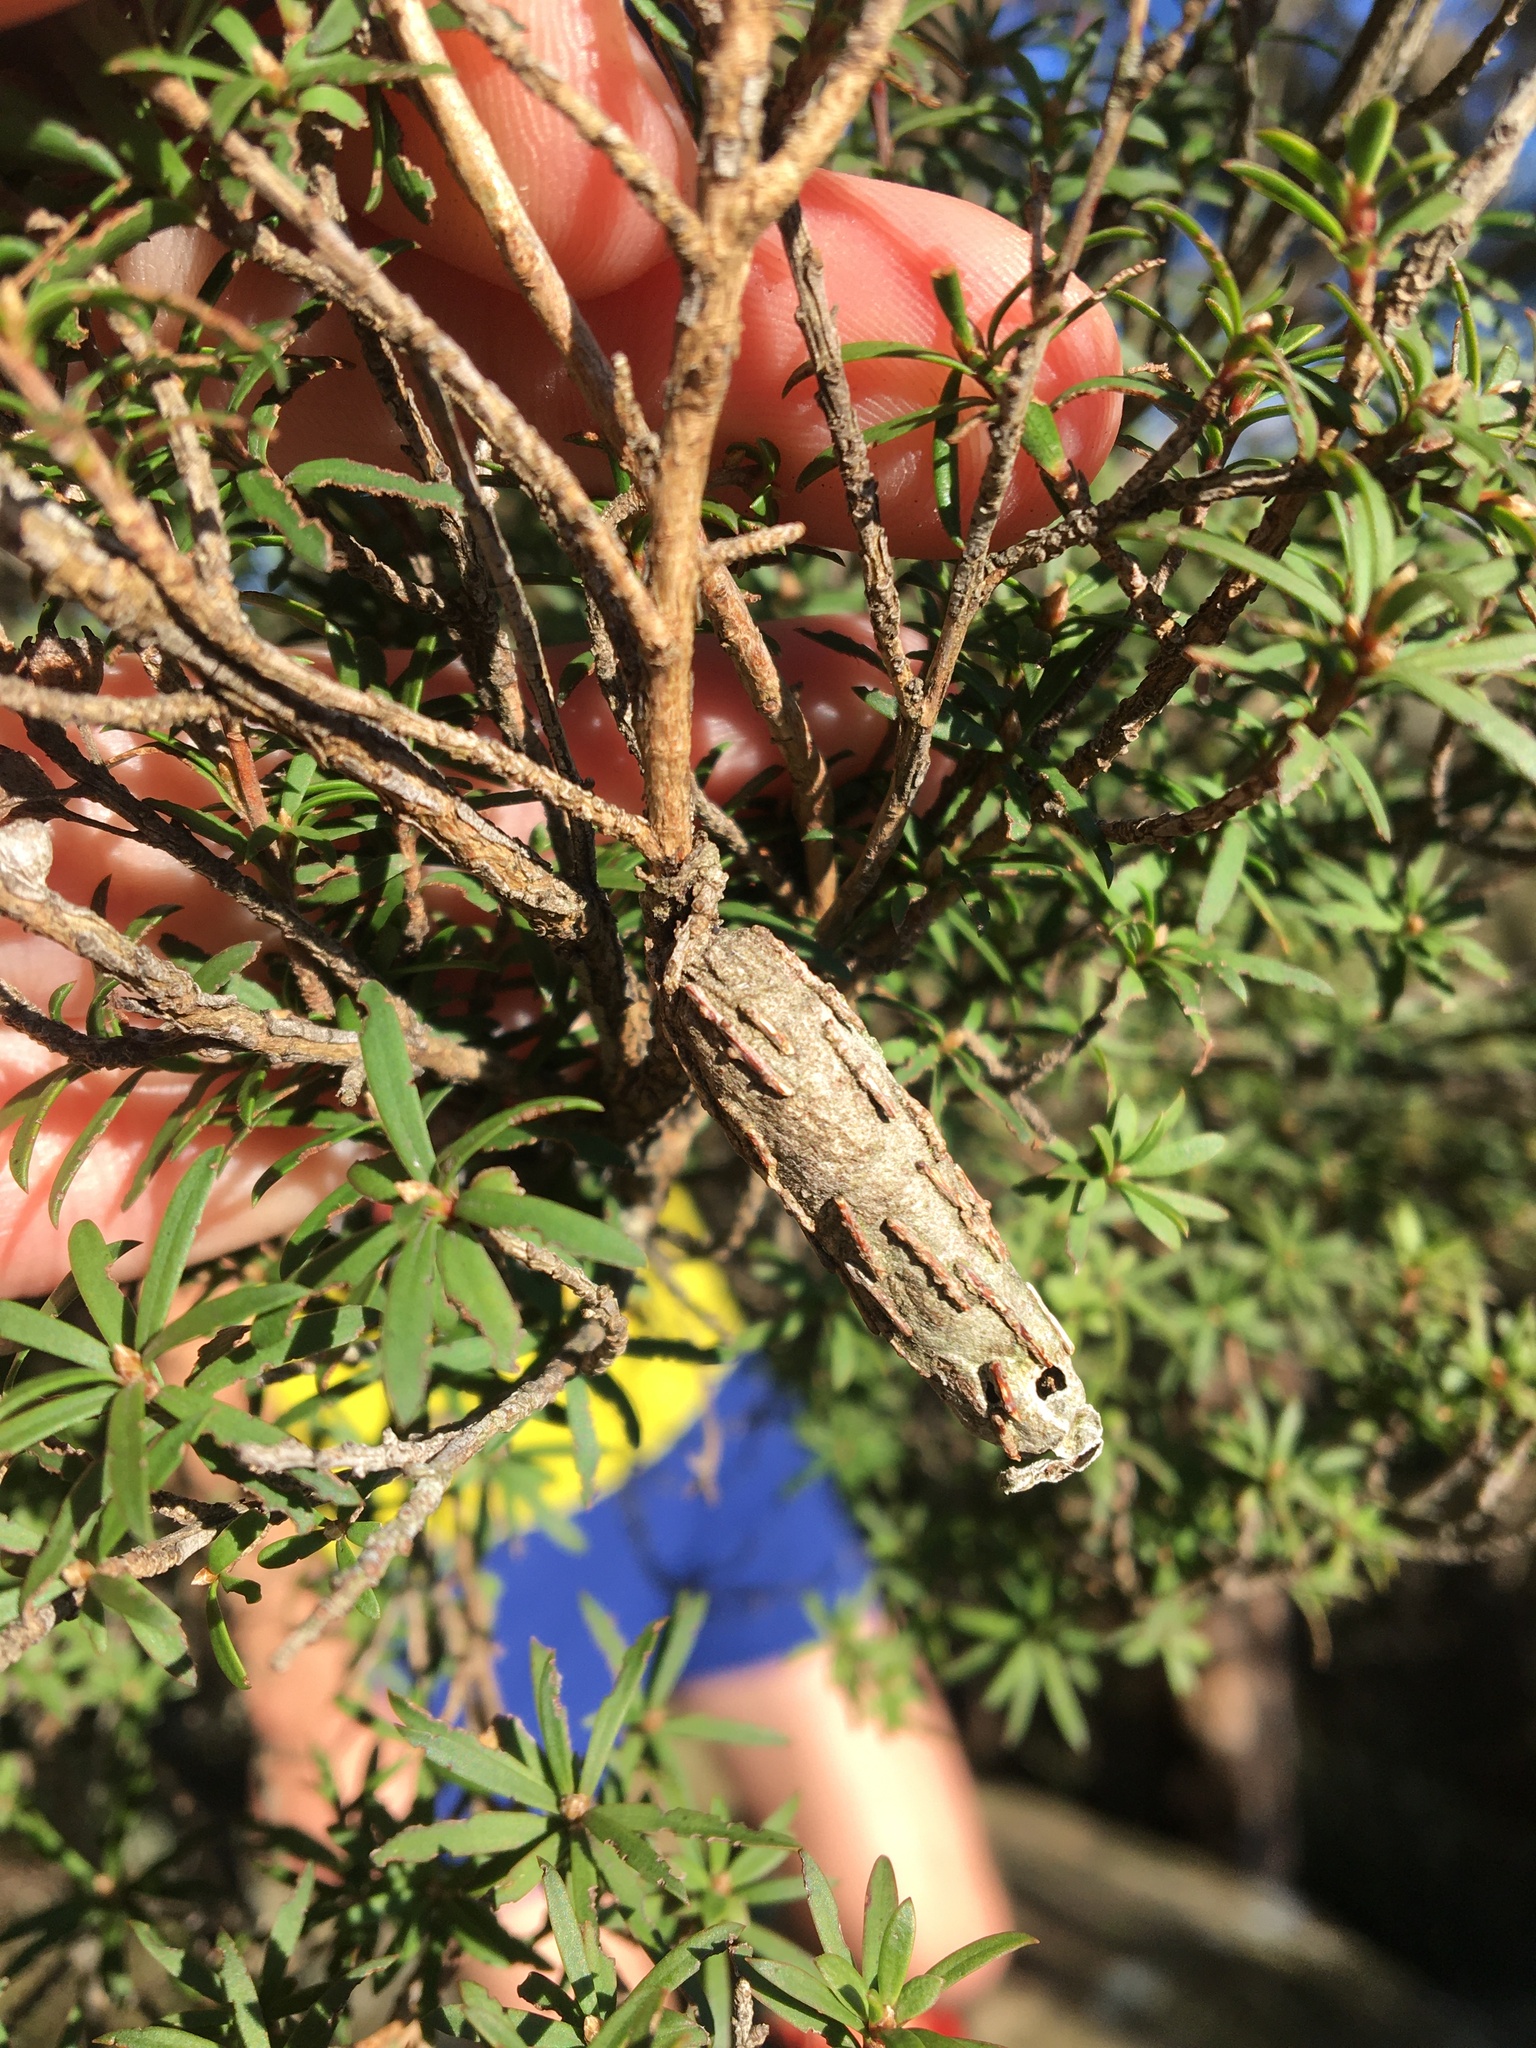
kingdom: Animalia
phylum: Arthropoda
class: Insecta
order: Lepidoptera
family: Psychidae
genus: Liothula
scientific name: Liothula omnivora
